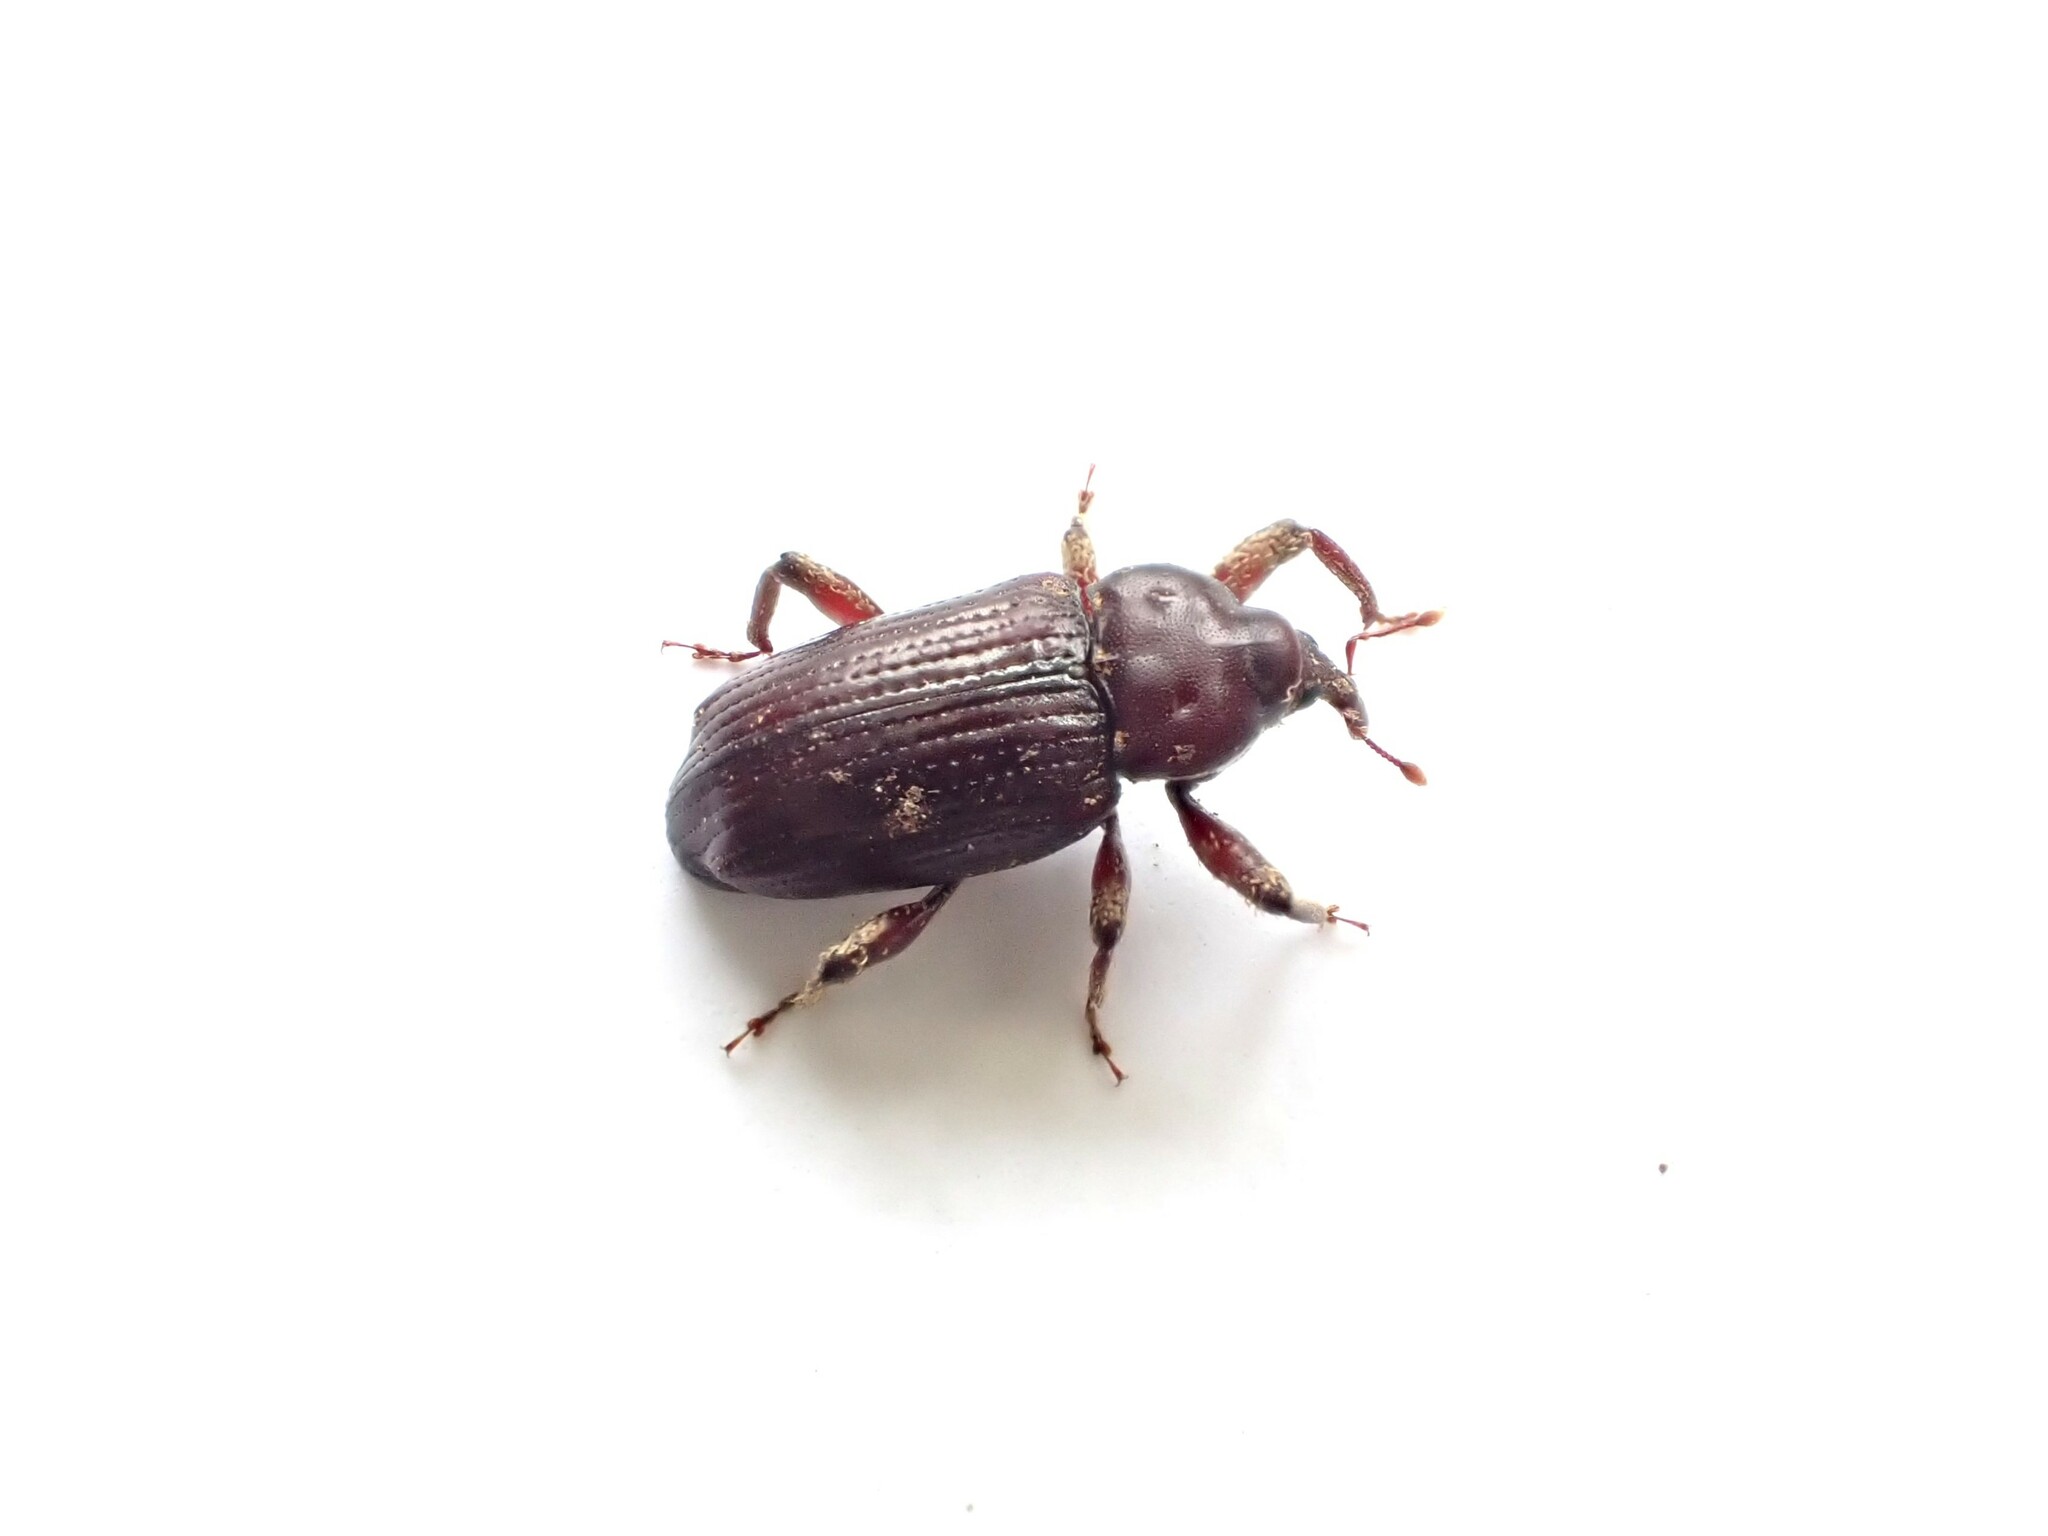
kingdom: Animalia
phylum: Arthropoda
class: Insecta
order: Coleoptera
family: Curculionidae
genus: Mitrastethus
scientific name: Mitrastethus baridioides
